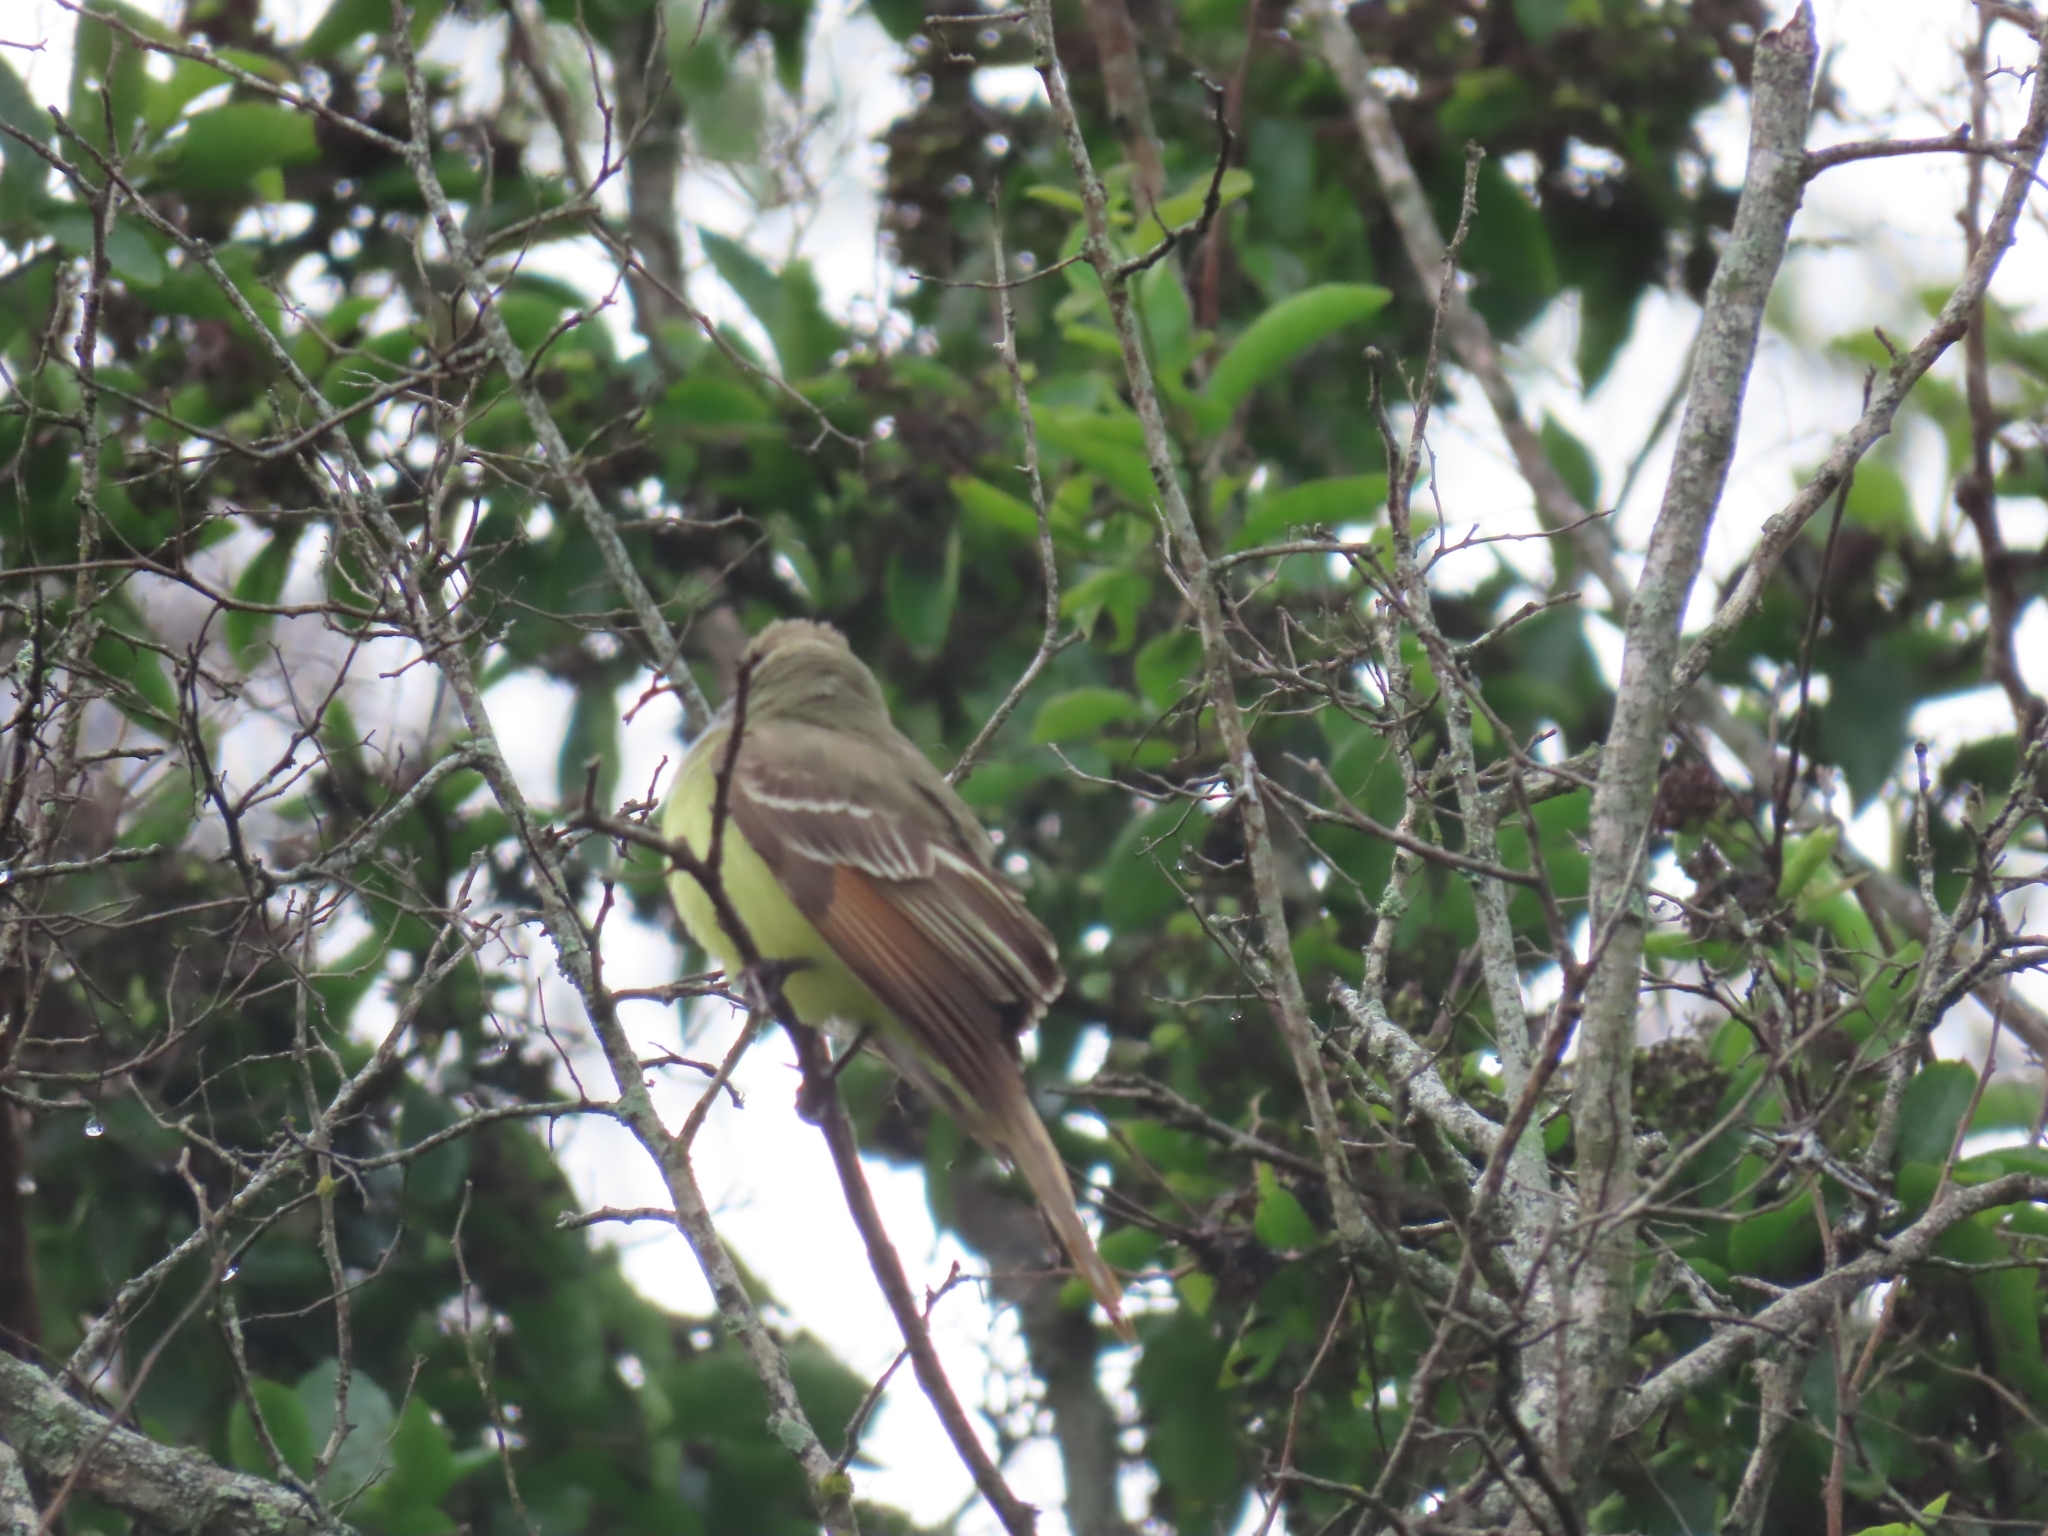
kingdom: Animalia
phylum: Chordata
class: Aves
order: Passeriformes
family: Tyrannidae
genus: Myiarchus
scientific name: Myiarchus crinitus
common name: Great crested flycatcher
